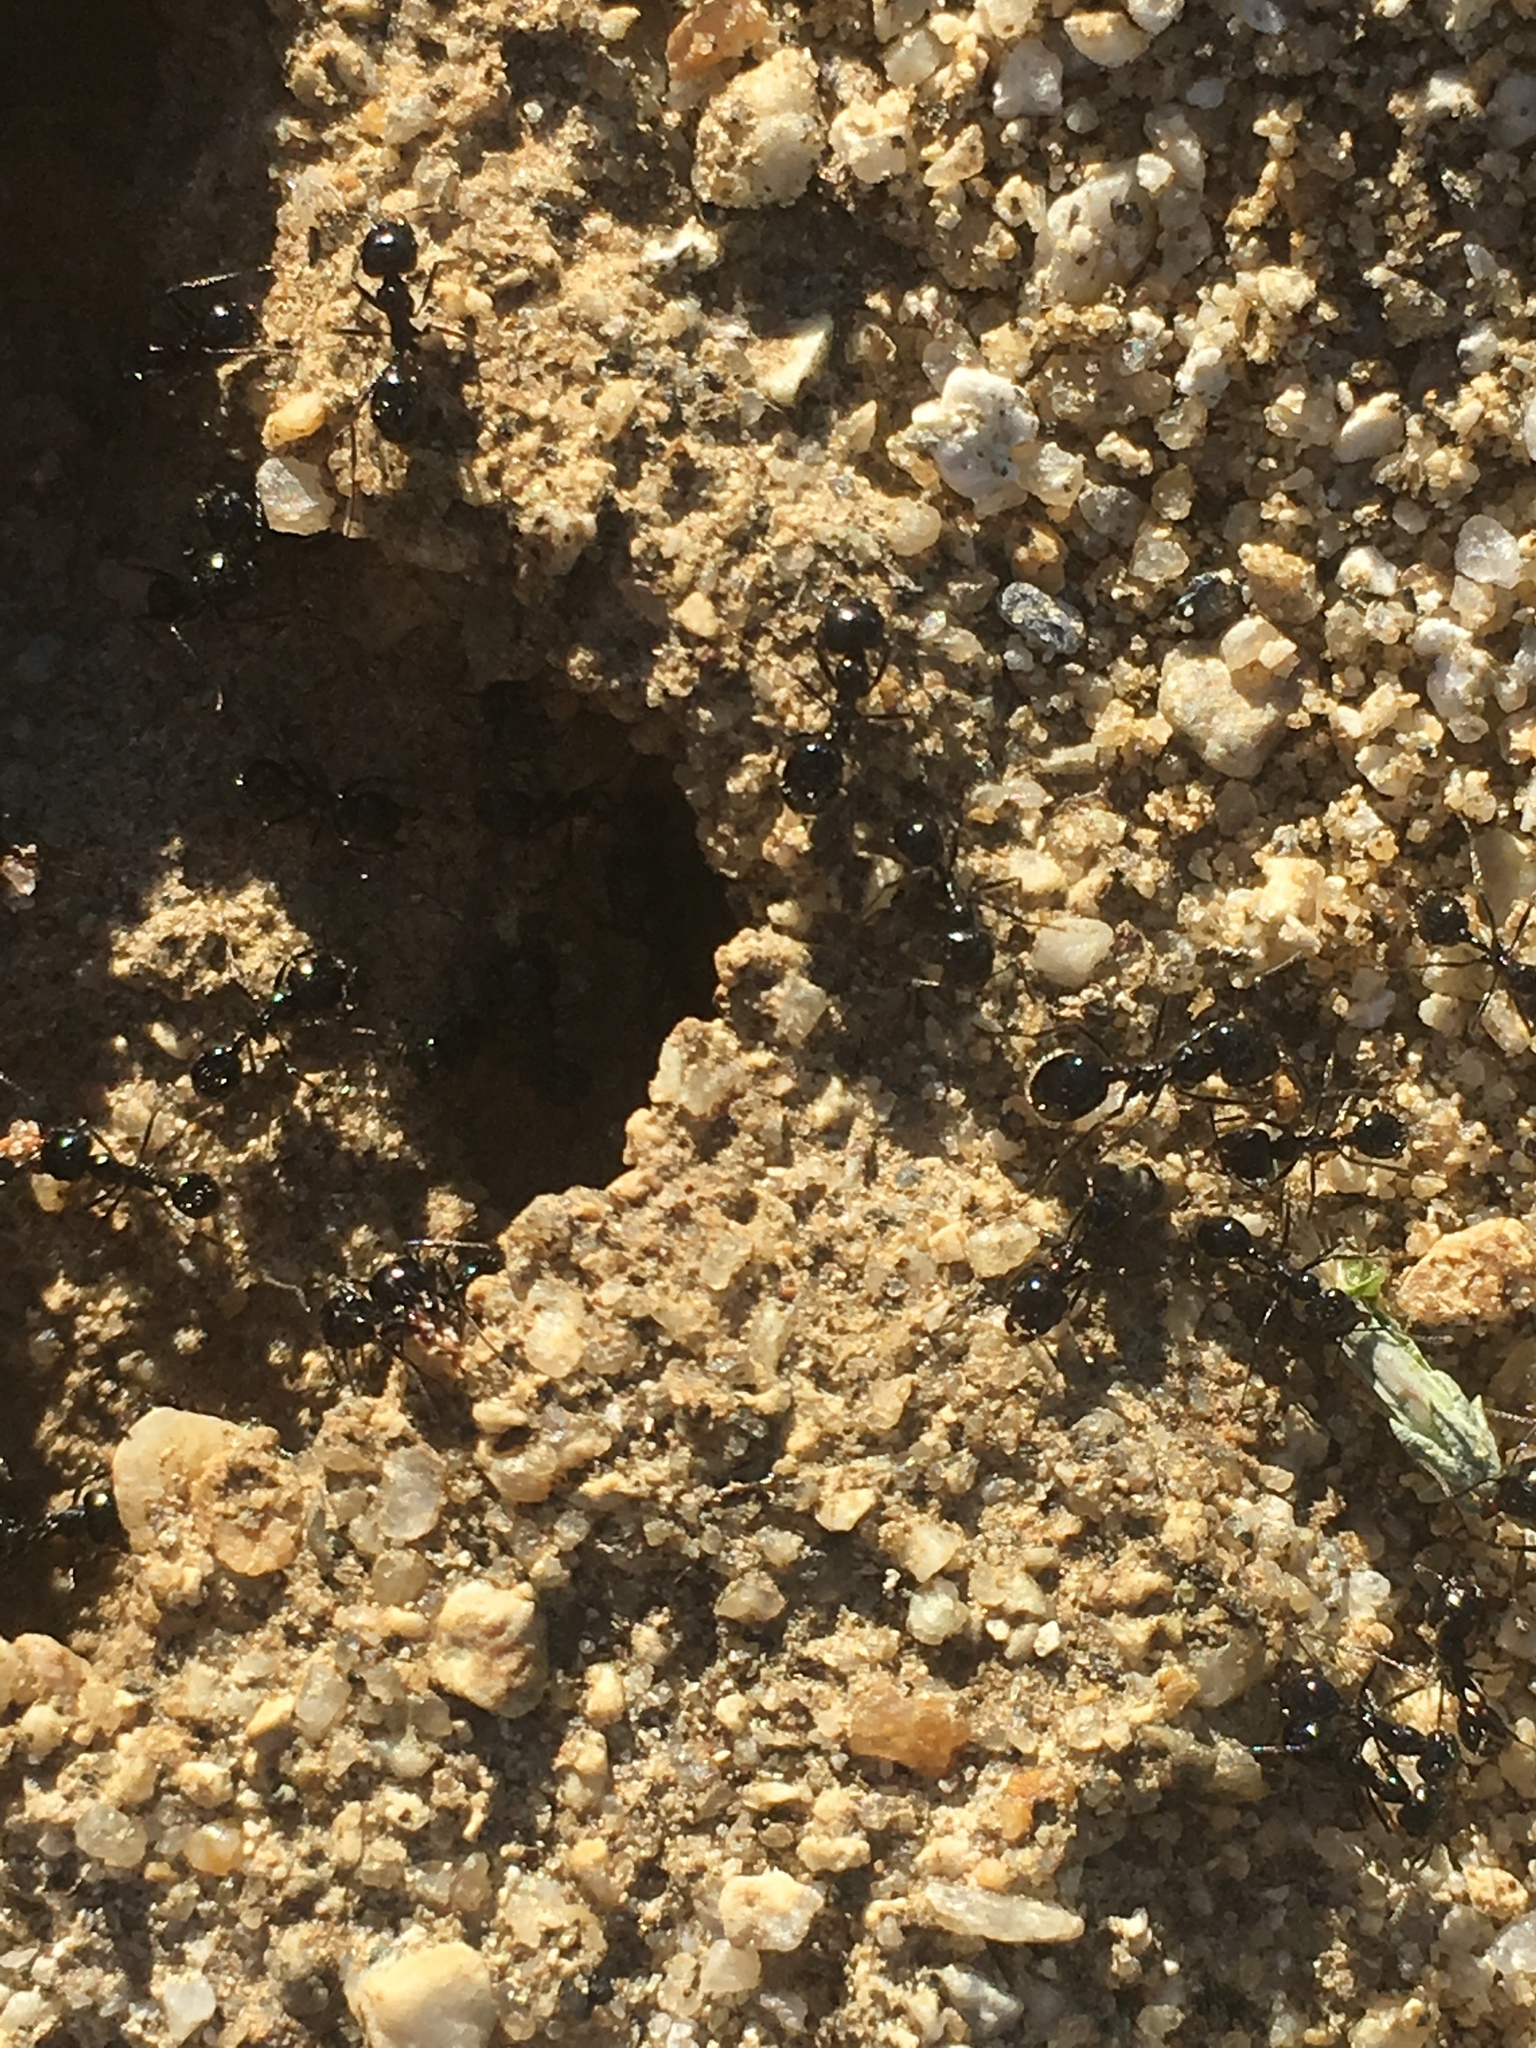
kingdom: Animalia
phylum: Arthropoda
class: Insecta
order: Hymenoptera
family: Formicidae
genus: Messor
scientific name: Messor pergandei
